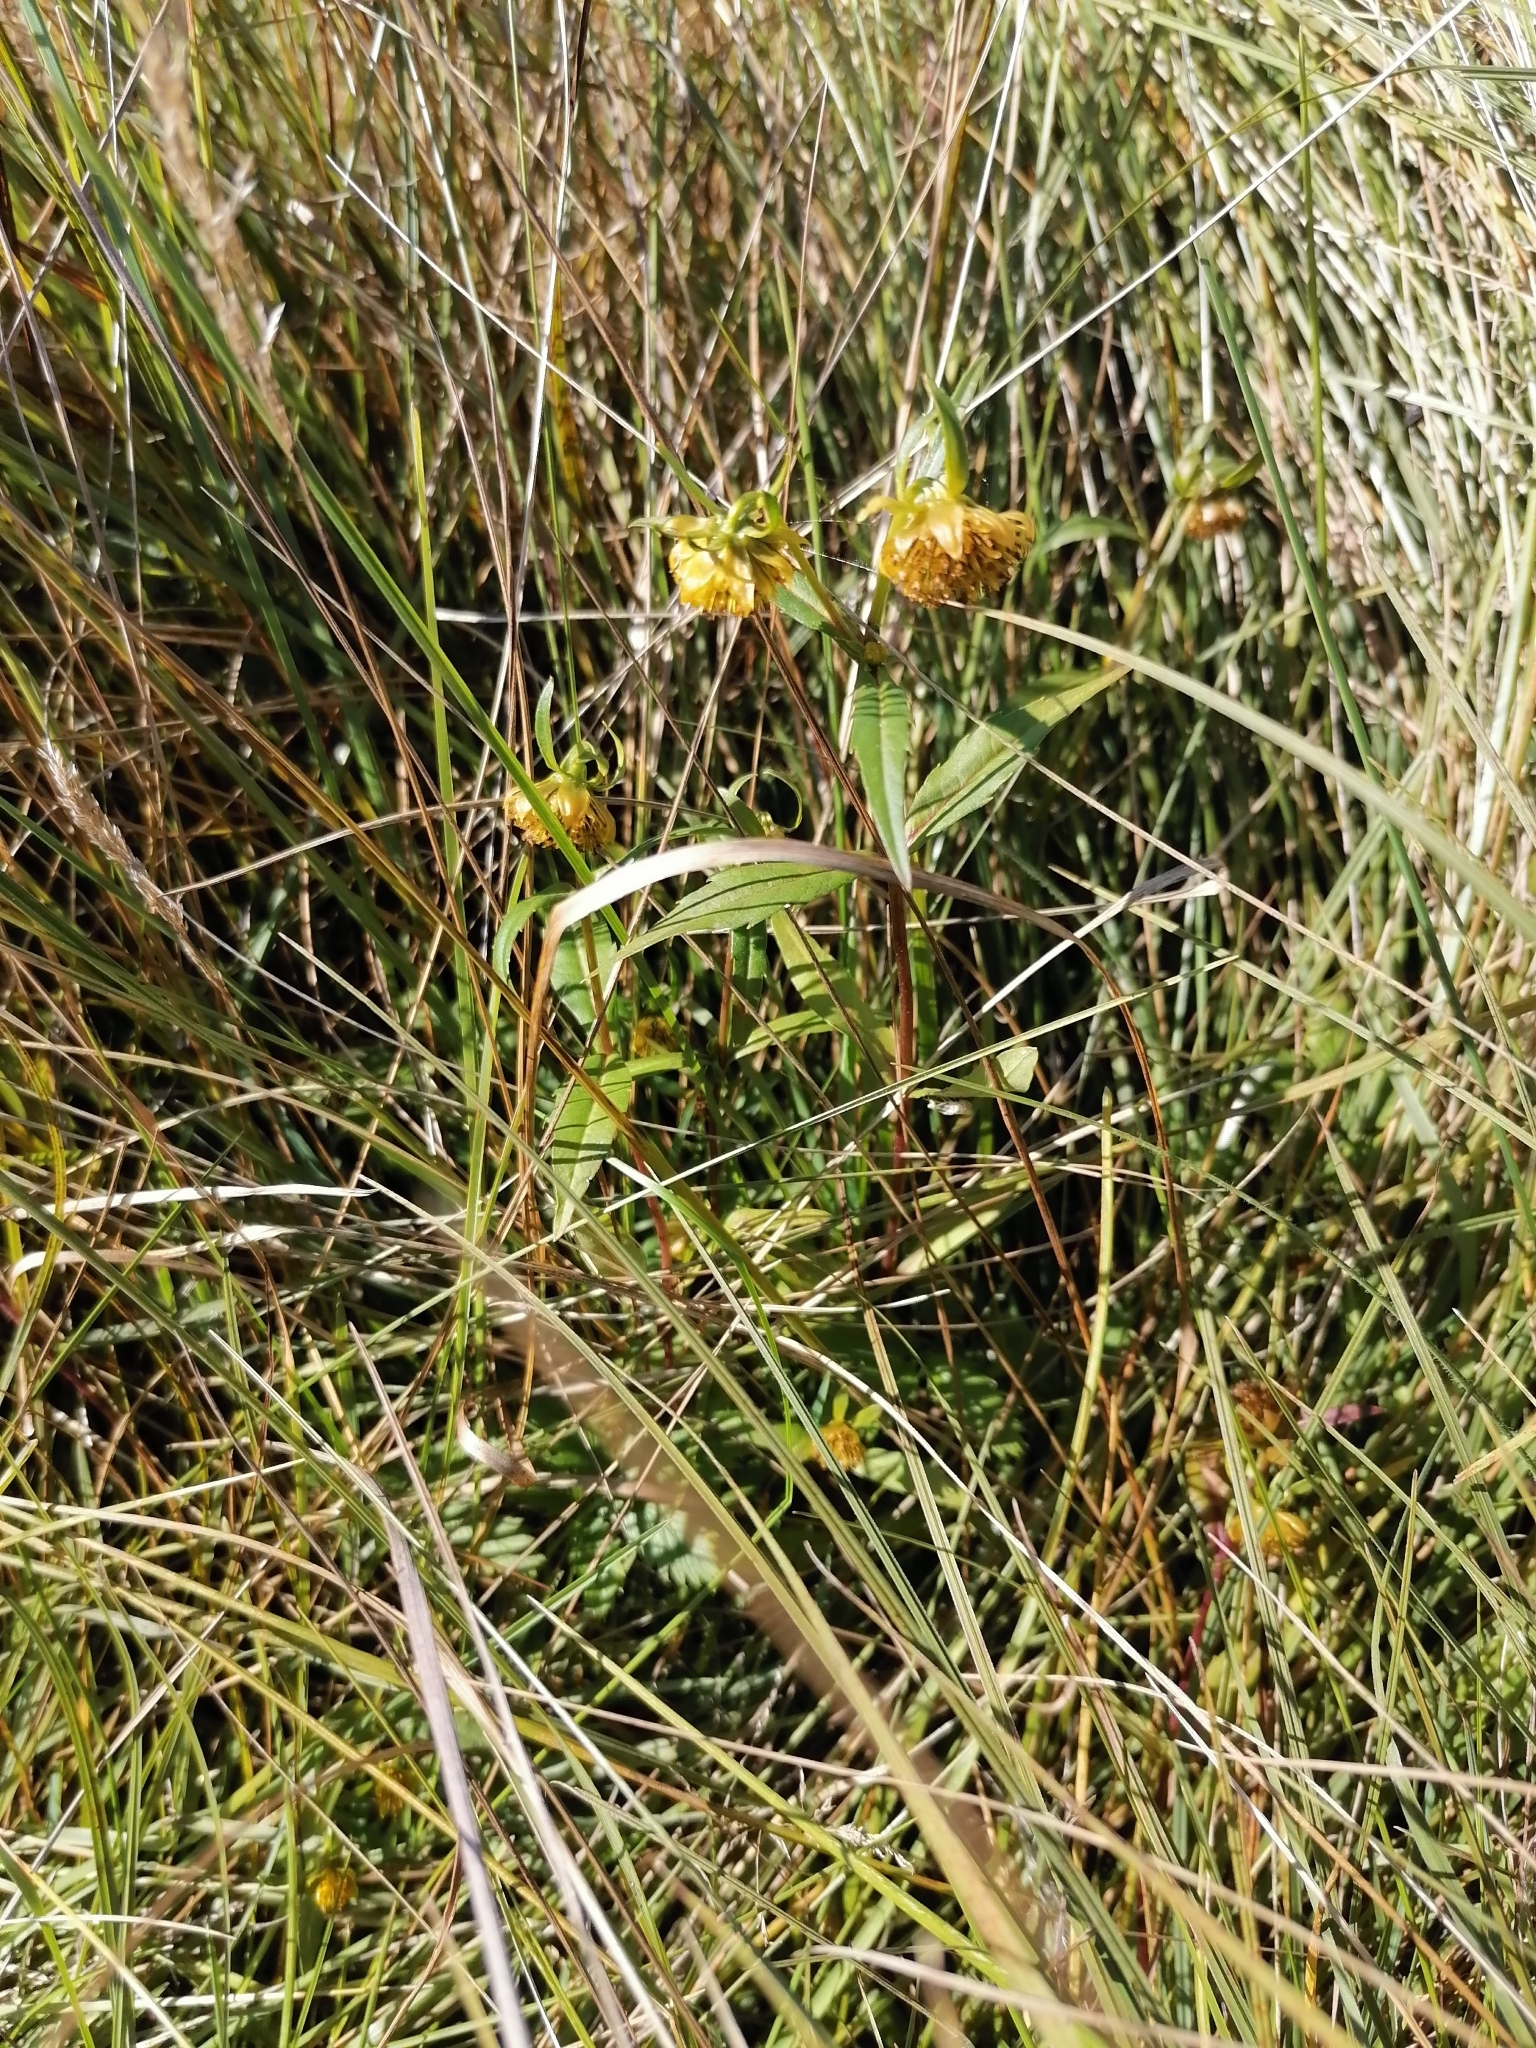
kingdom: Plantae
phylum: Tracheophyta
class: Magnoliopsida
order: Asterales
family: Asteraceae
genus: Bidens
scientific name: Bidens cernua
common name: Nodding bur-marigold
